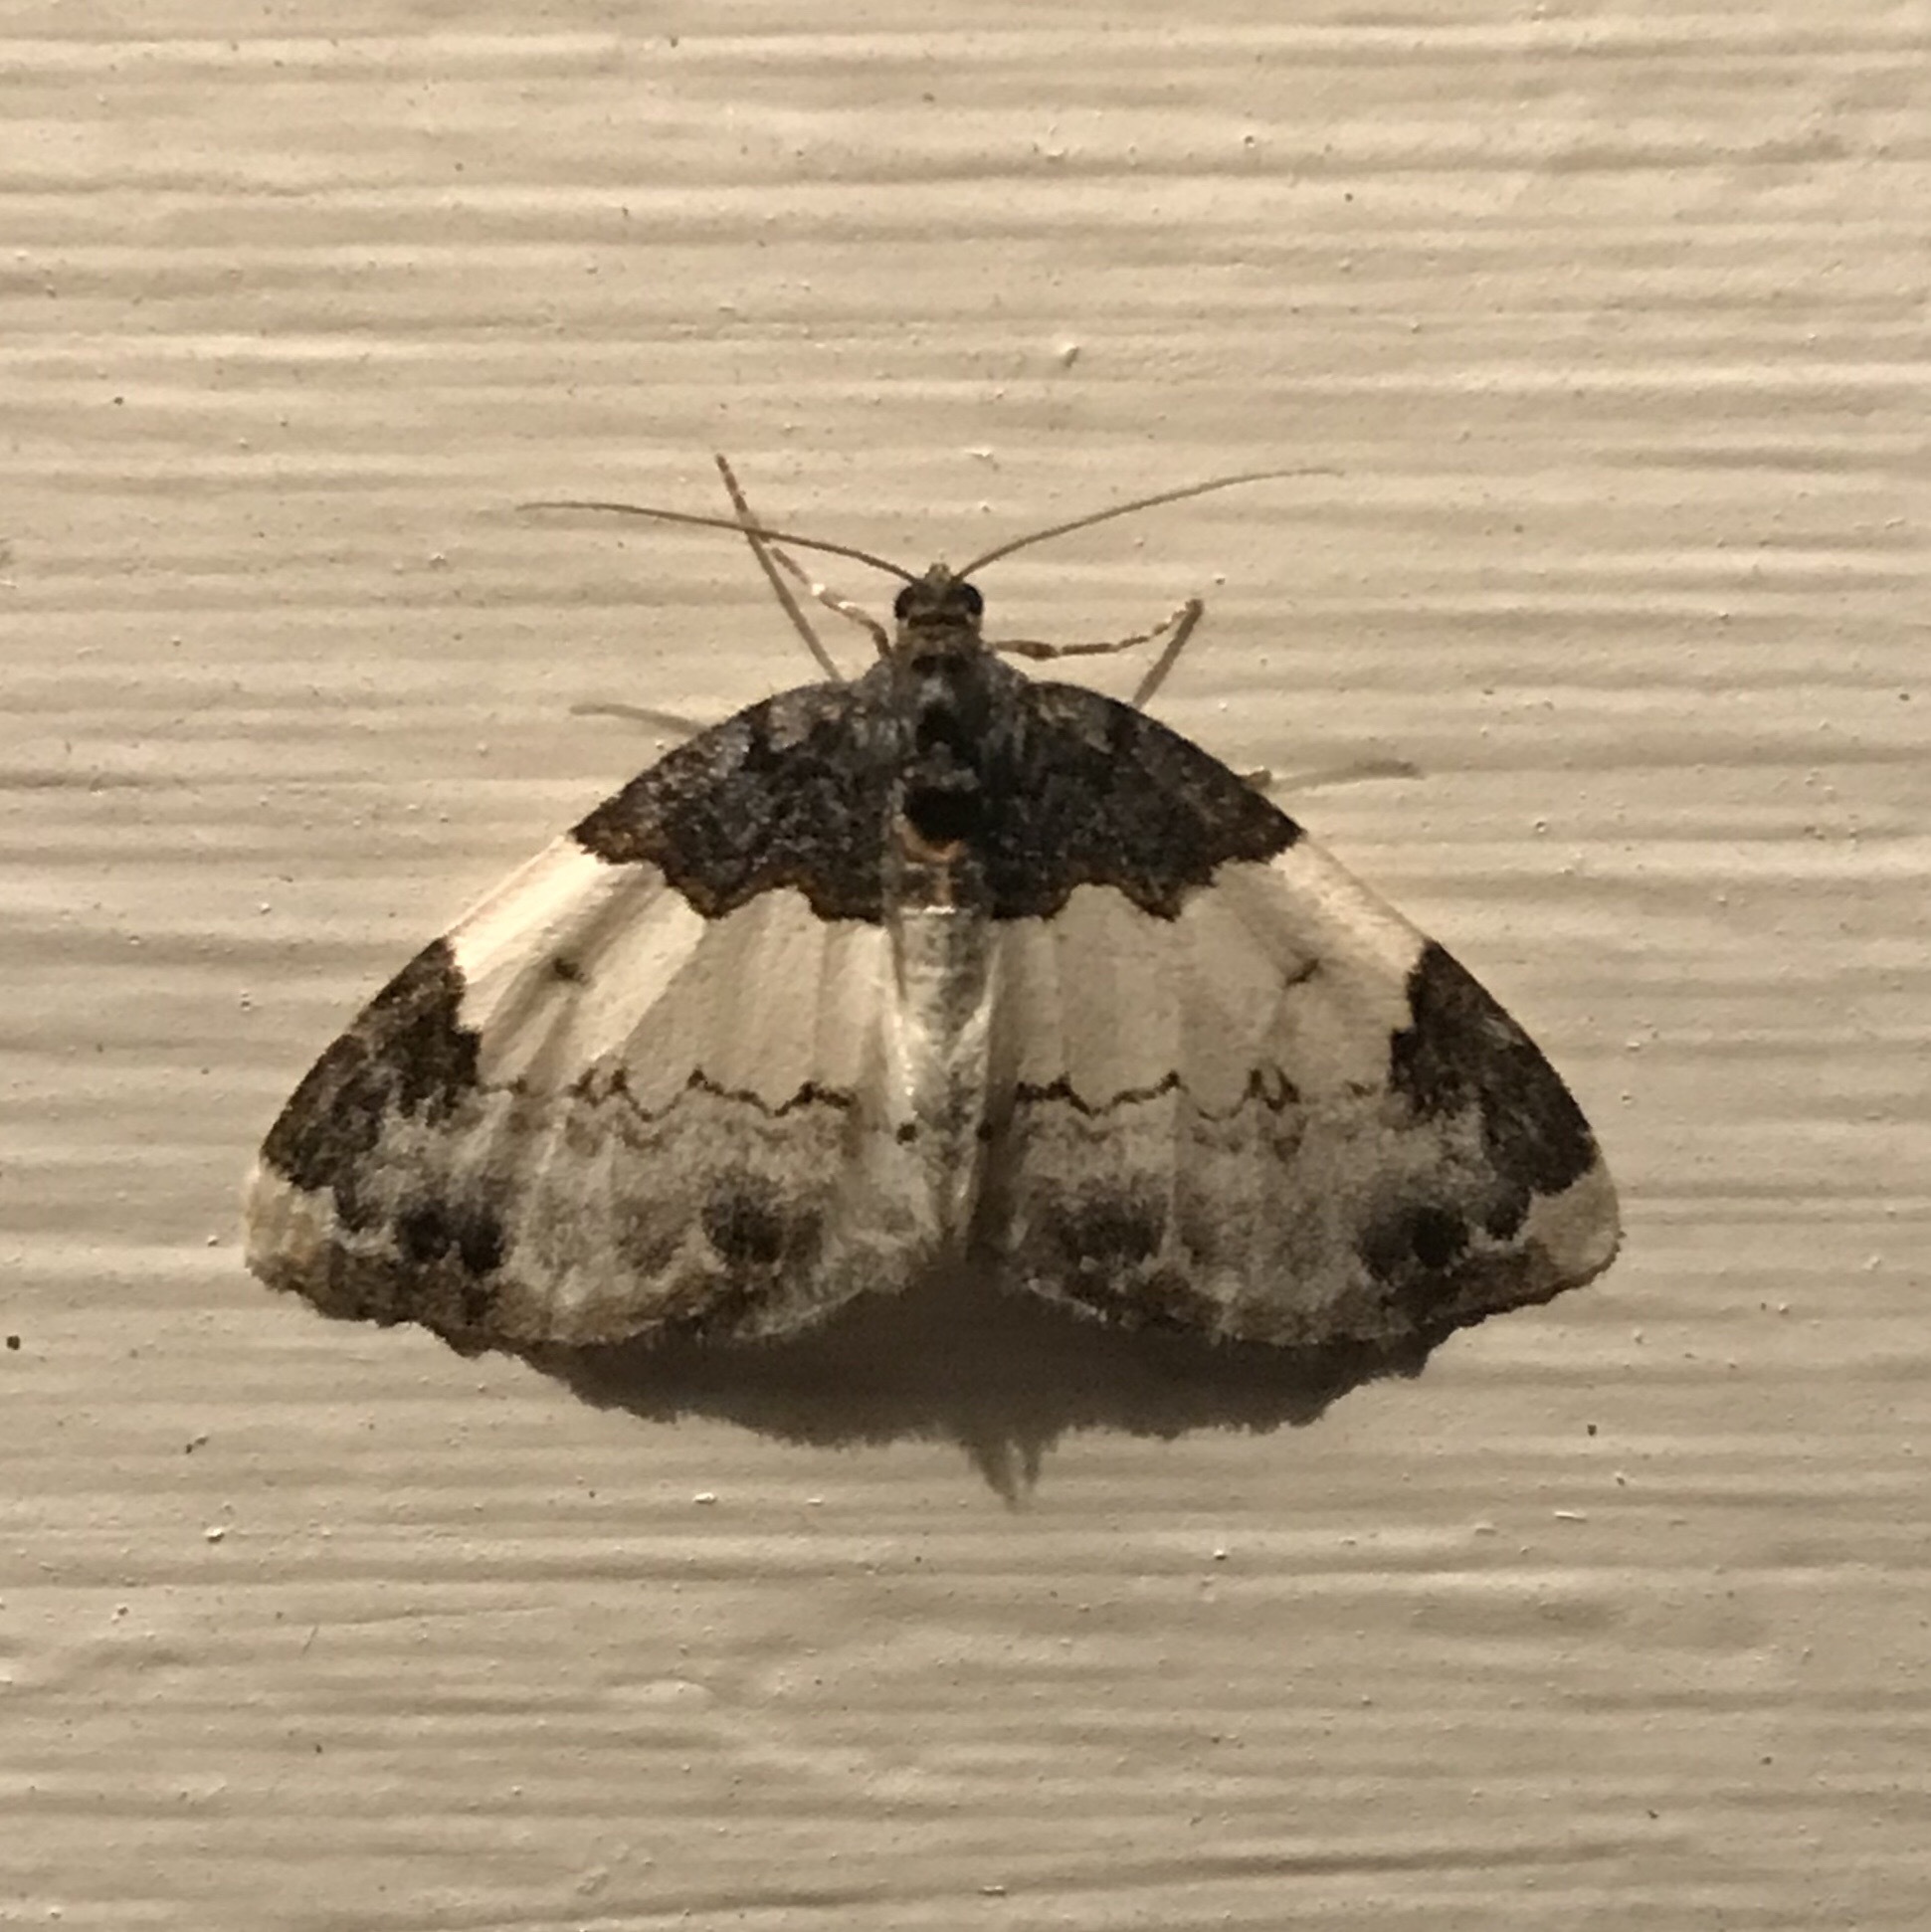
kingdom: Animalia
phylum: Arthropoda
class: Insecta
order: Lepidoptera
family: Geometridae
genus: Mesoleuca
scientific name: Mesoleuca ruficillata
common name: White-ribboned carpet moth
